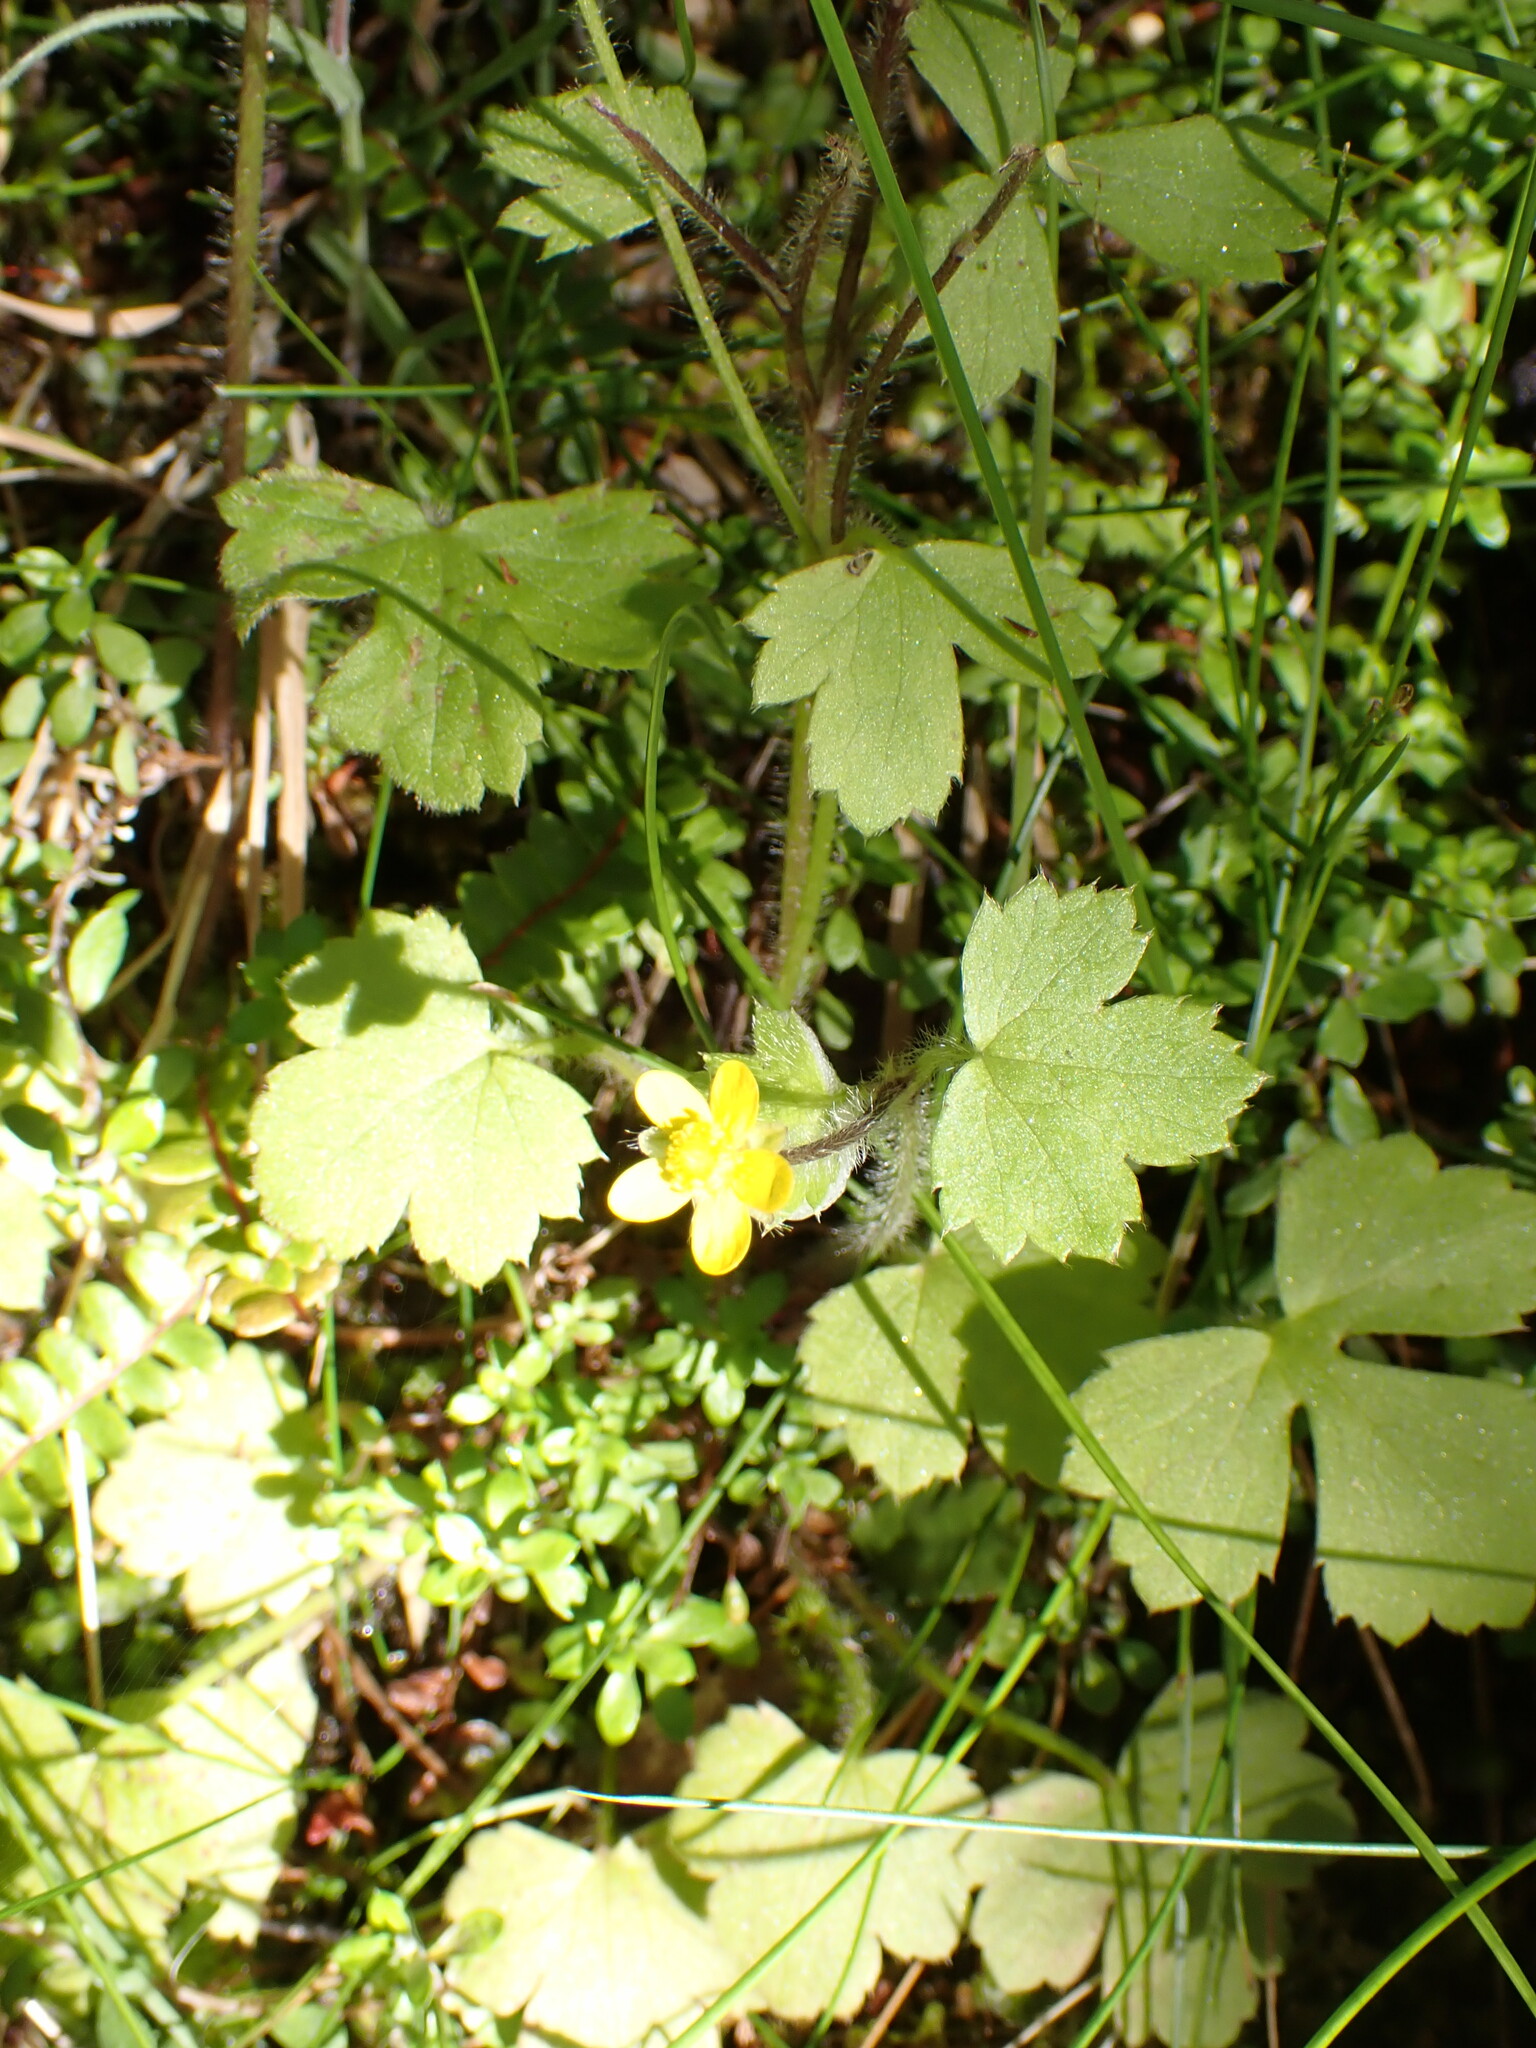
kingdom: Plantae
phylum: Tracheophyta
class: Magnoliopsida
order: Ranunculales
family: Ranunculaceae
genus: Ranunculus
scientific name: Ranunculus reflexus
